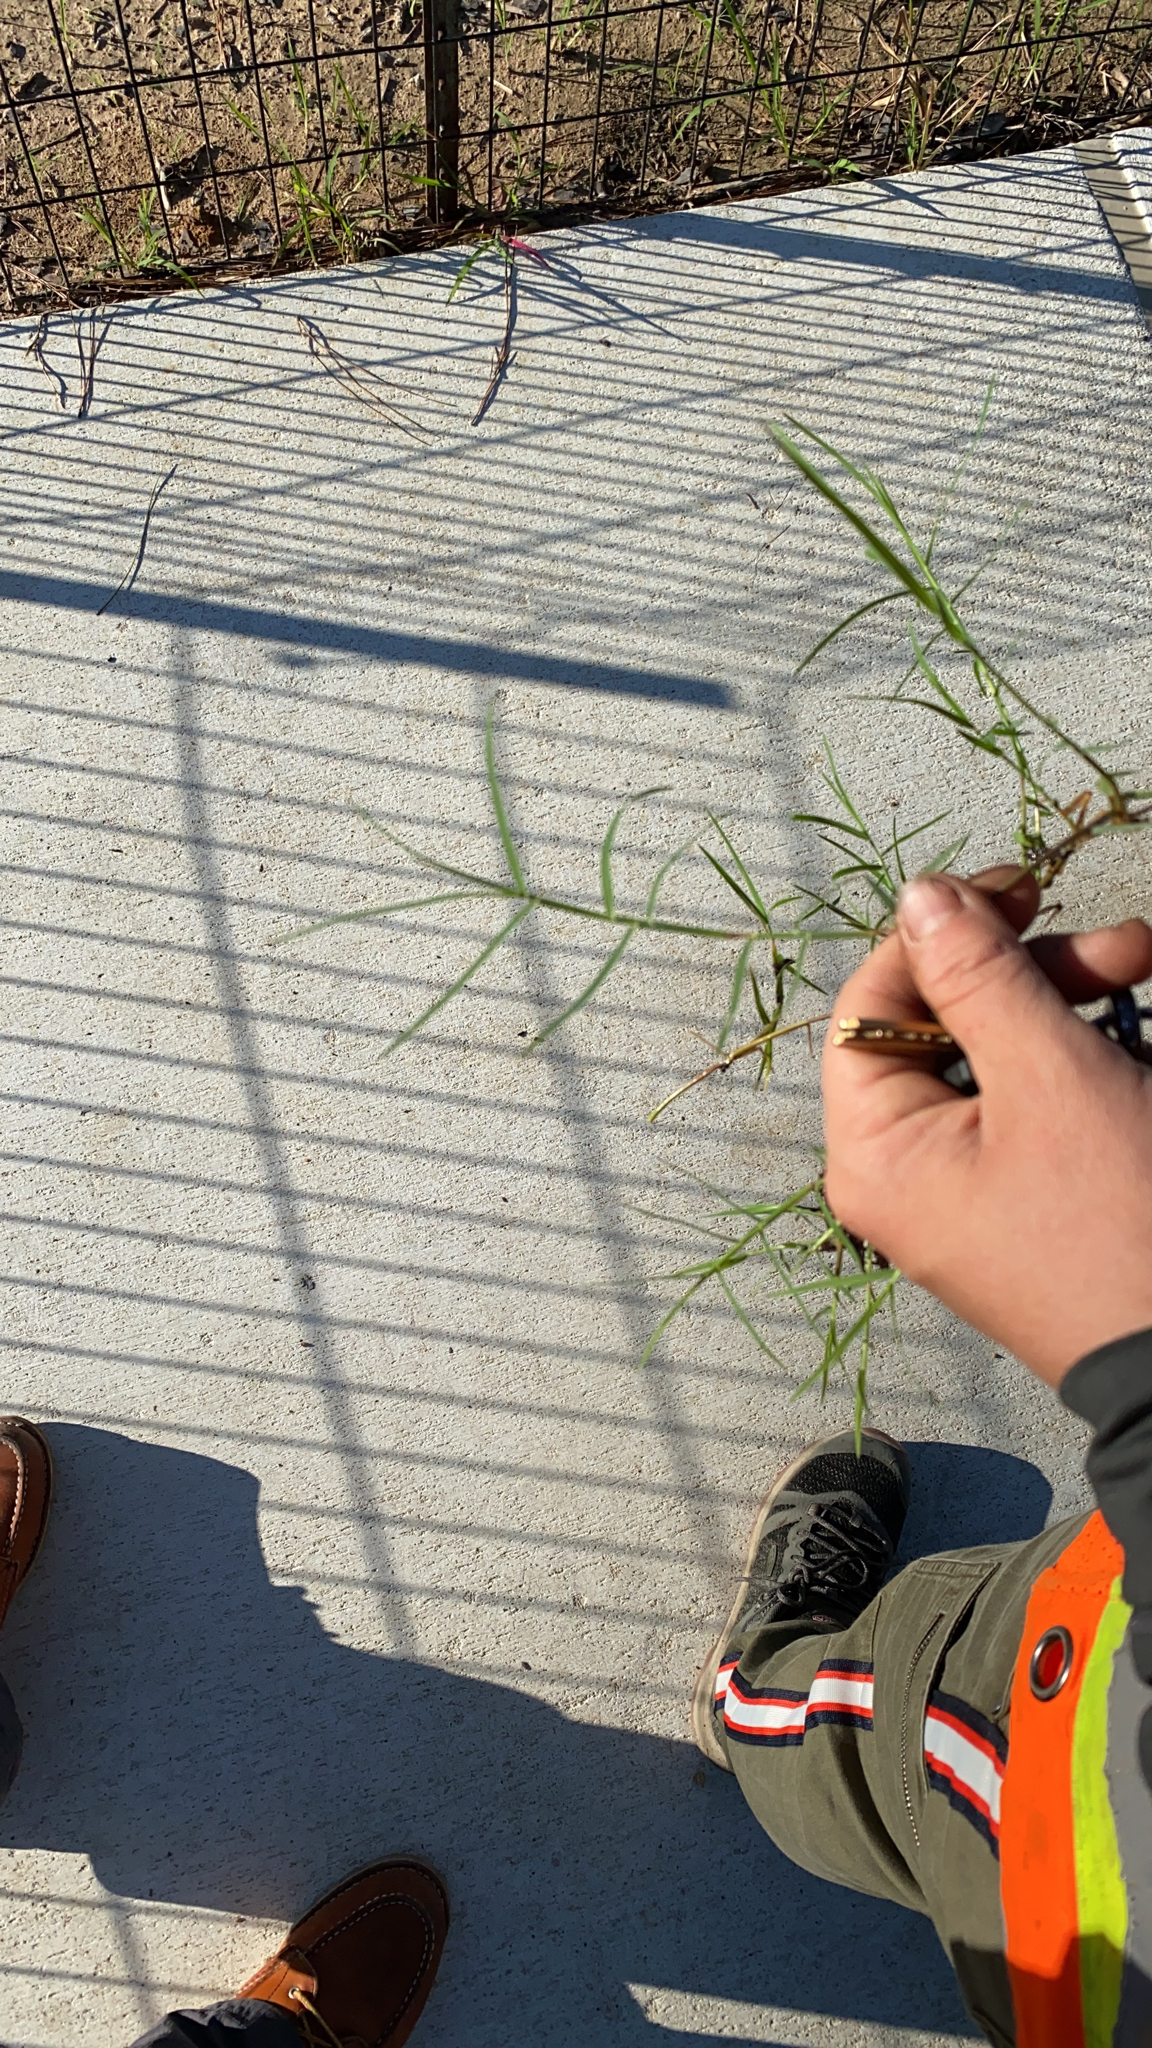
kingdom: Plantae
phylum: Tracheophyta
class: Liliopsida
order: Poales
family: Poaceae
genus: Cynodon
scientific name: Cynodon dactylon
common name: Bermuda grass
